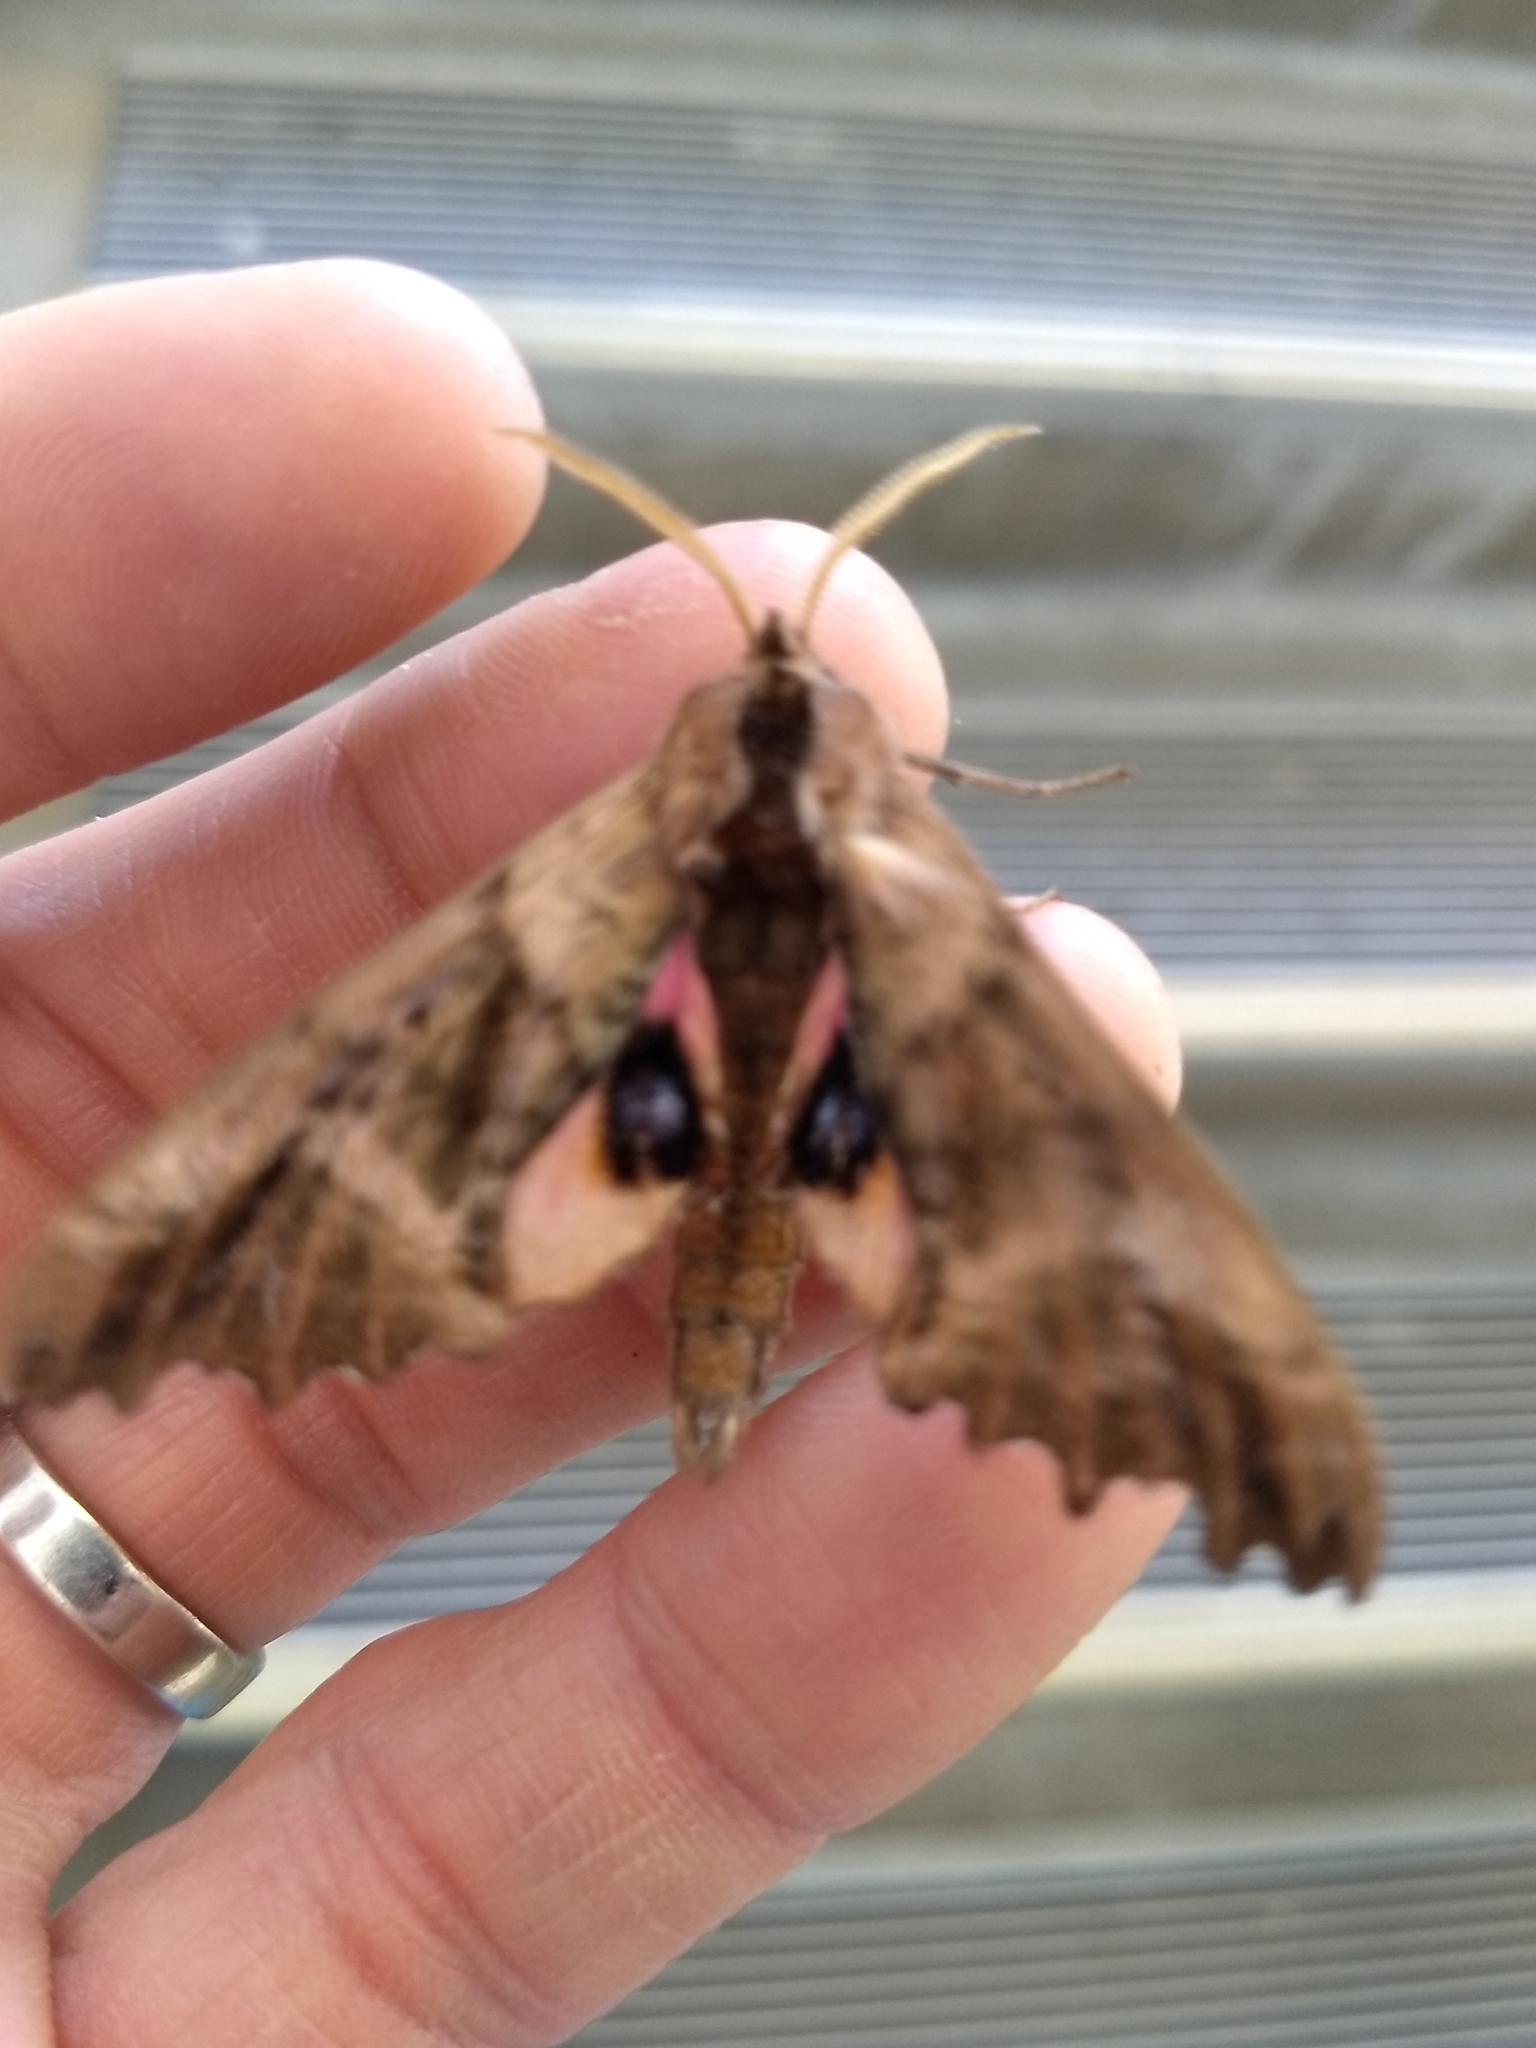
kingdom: Animalia
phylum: Arthropoda
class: Insecta
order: Lepidoptera
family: Sphingidae
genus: Paonias
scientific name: Paonias excaecata
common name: Blind-eyed sphinx
